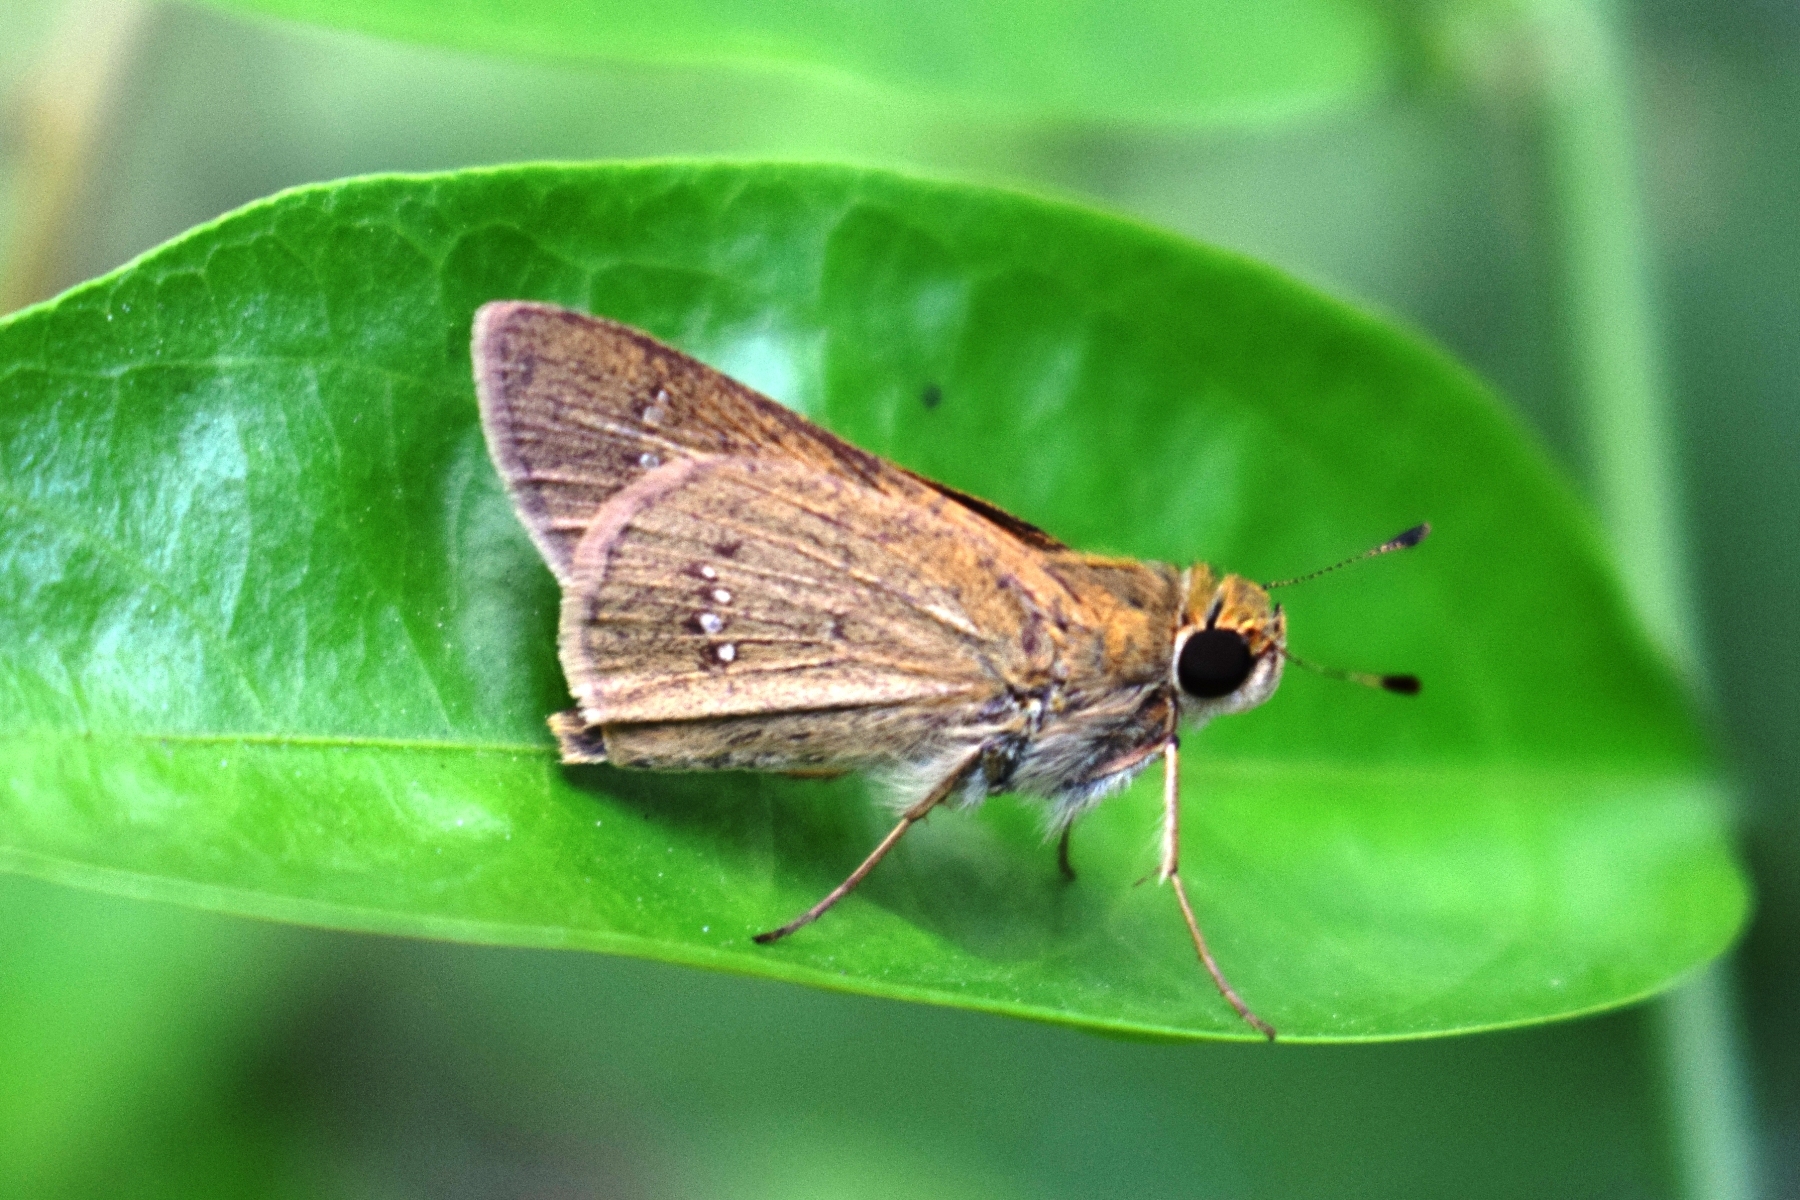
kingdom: Animalia
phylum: Arthropoda
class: Insecta
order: Lepidoptera
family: Hesperiidae
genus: Parnara
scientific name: Parnara naso
